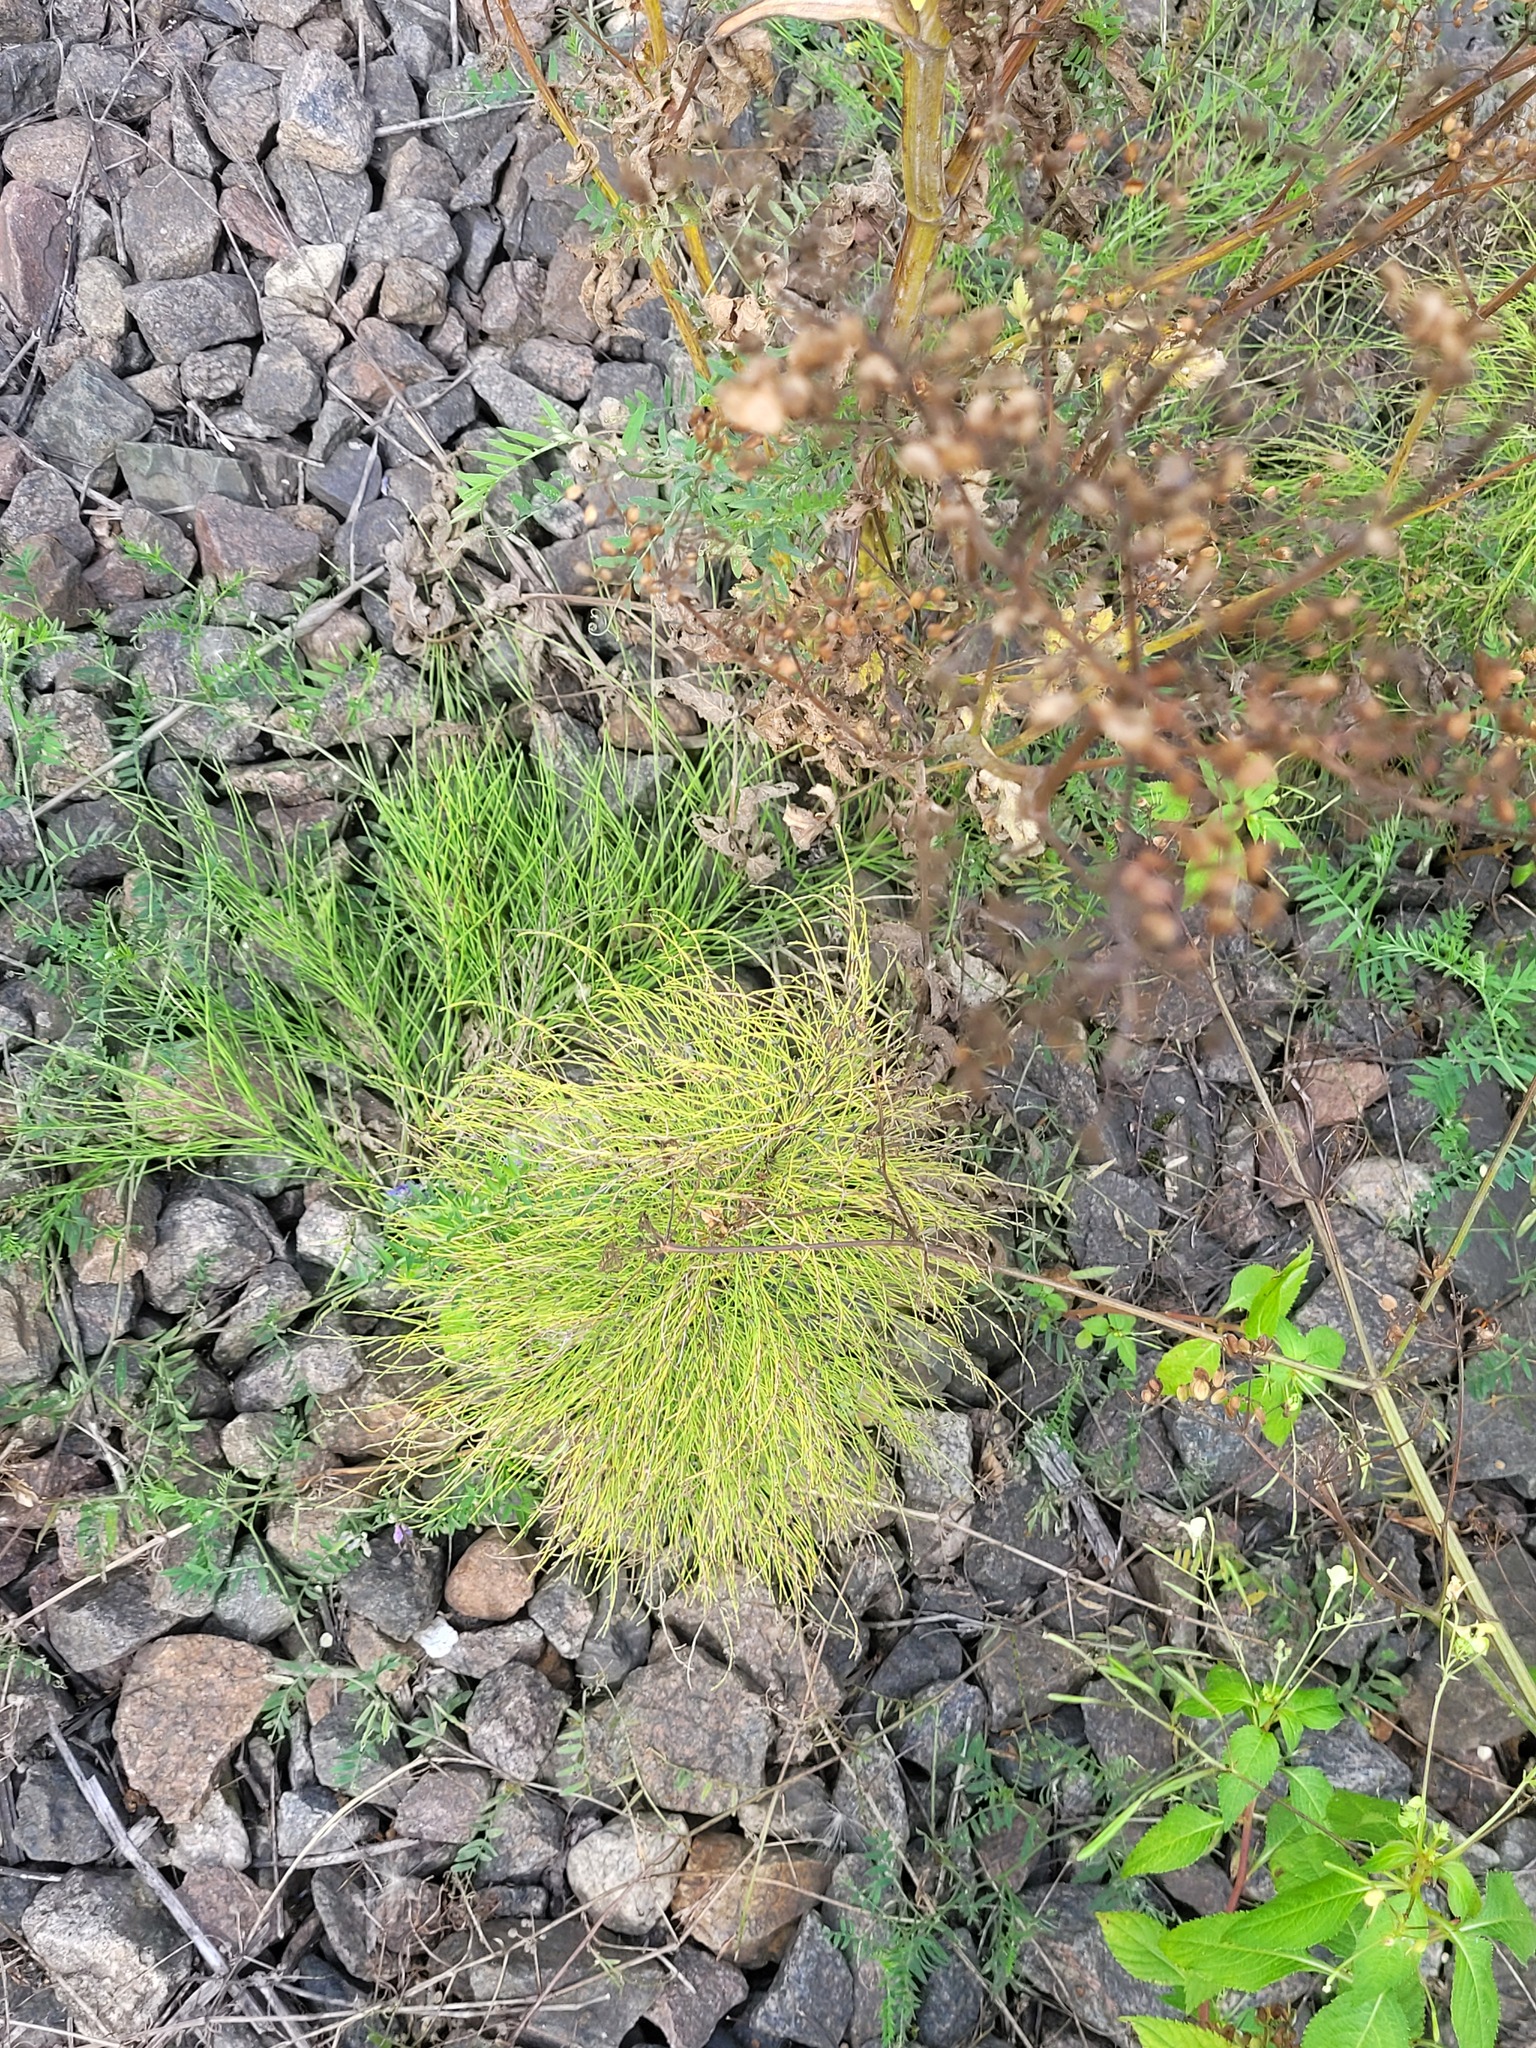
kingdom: Plantae
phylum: Tracheophyta
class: Polypodiopsida
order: Equisetales
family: Equisetaceae
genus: Equisetum
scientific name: Equisetum sylvaticum
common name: Wood horsetail
